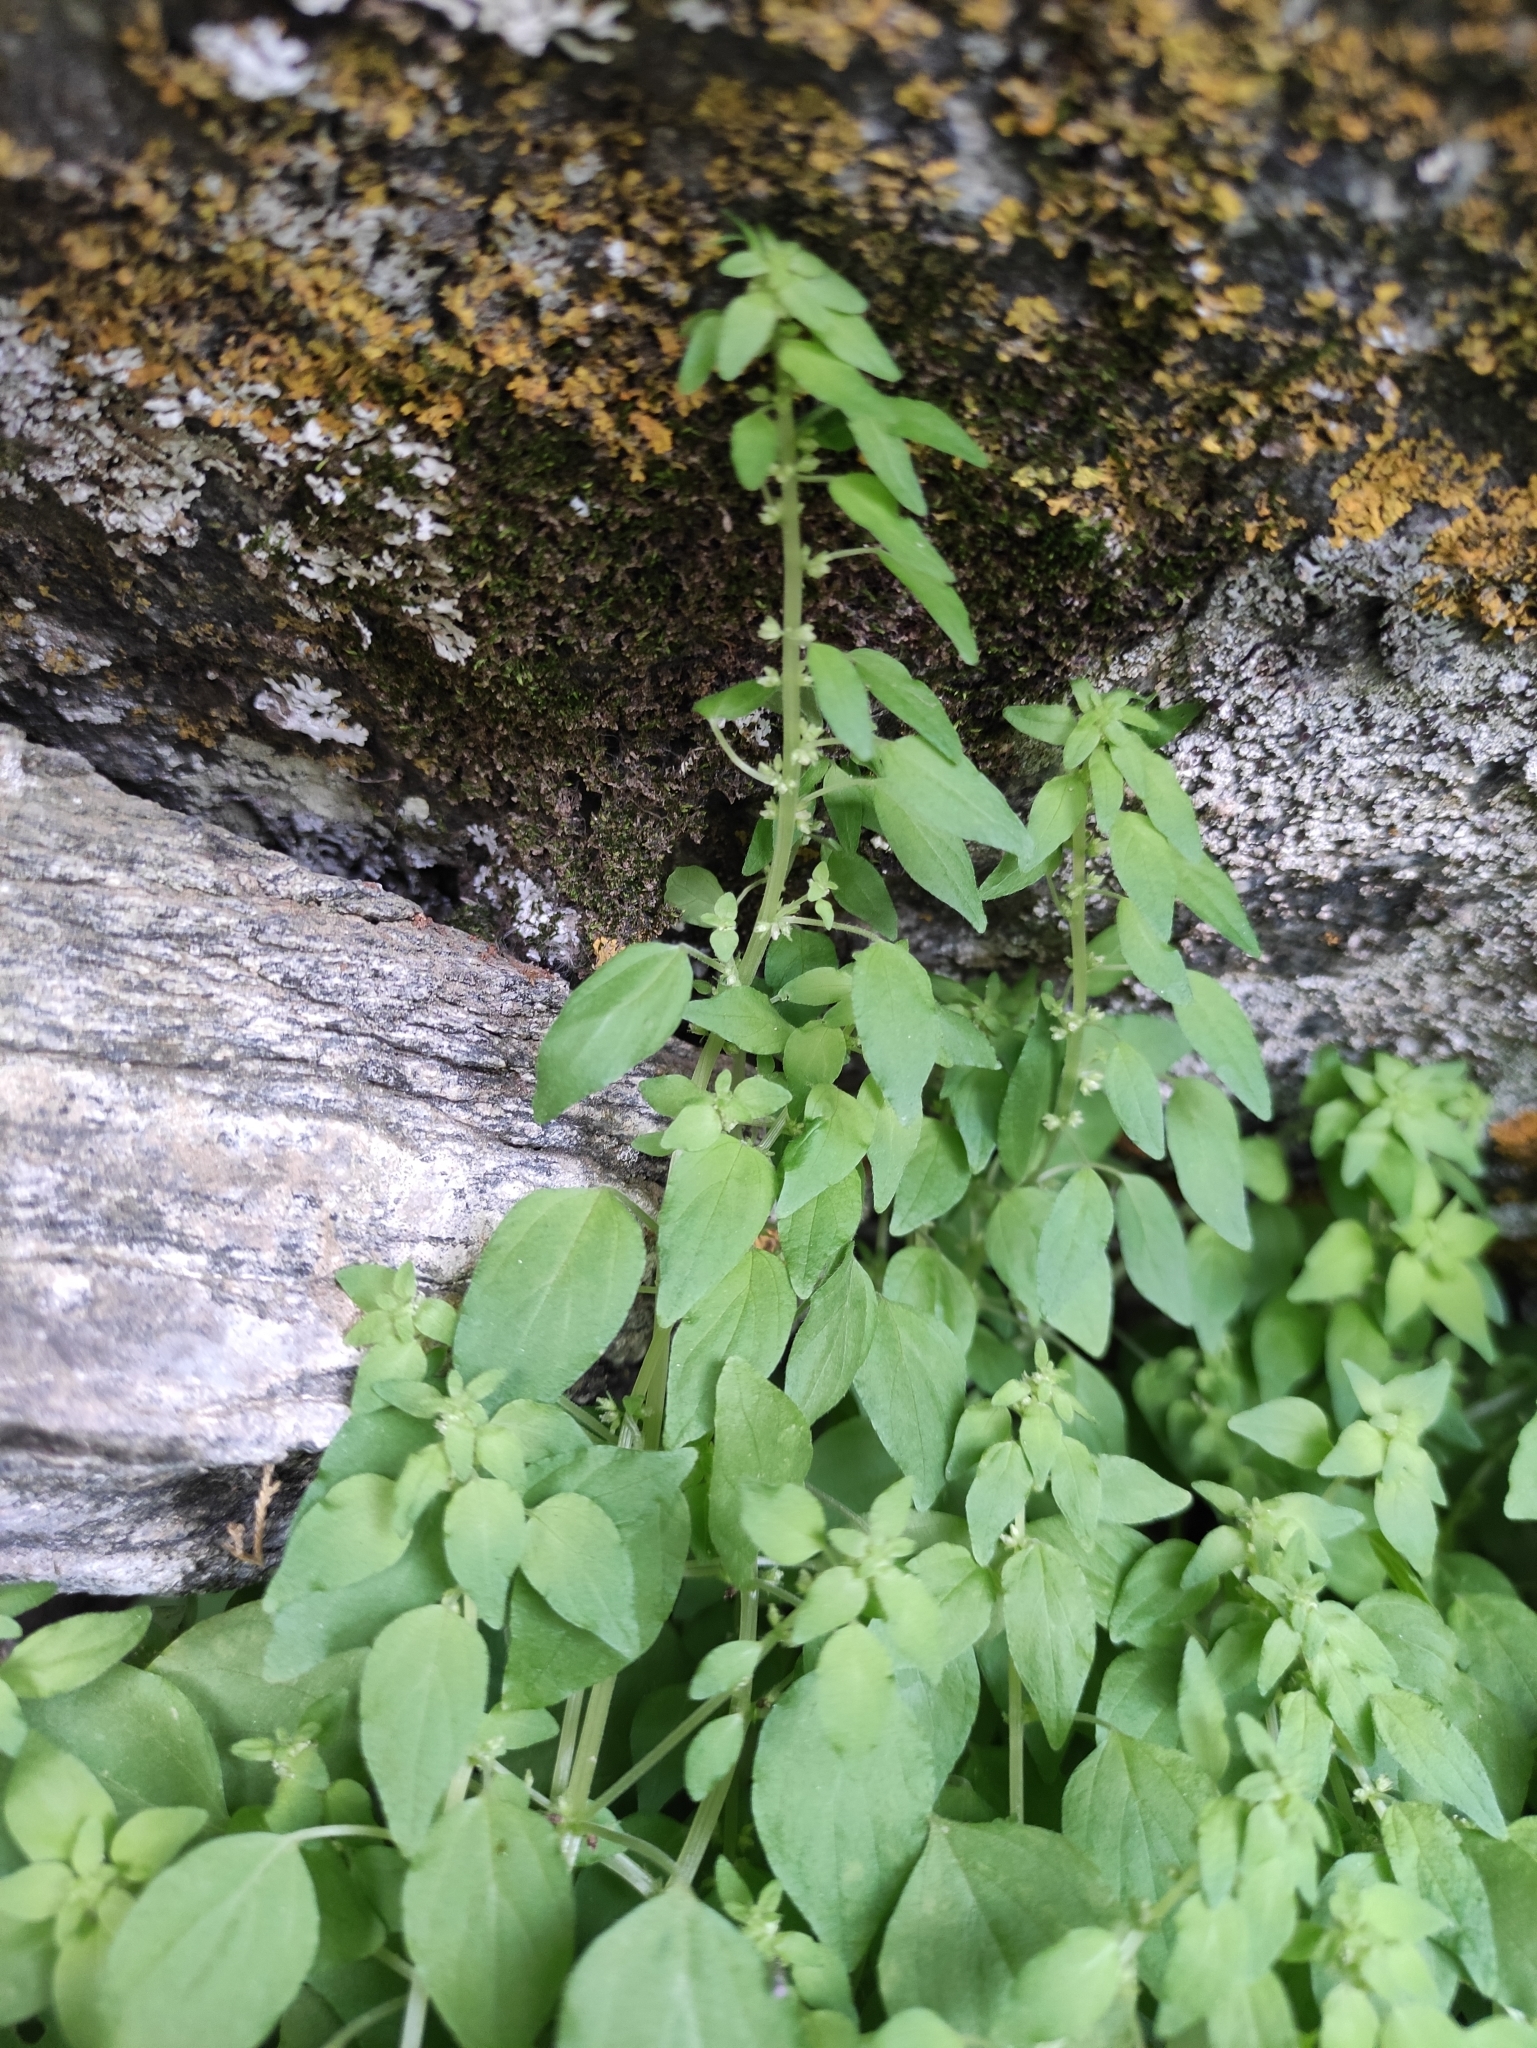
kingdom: Plantae
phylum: Tracheophyta
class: Magnoliopsida
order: Rosales
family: Urticaceae
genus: Parietaria
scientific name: Parietaria micrantha
